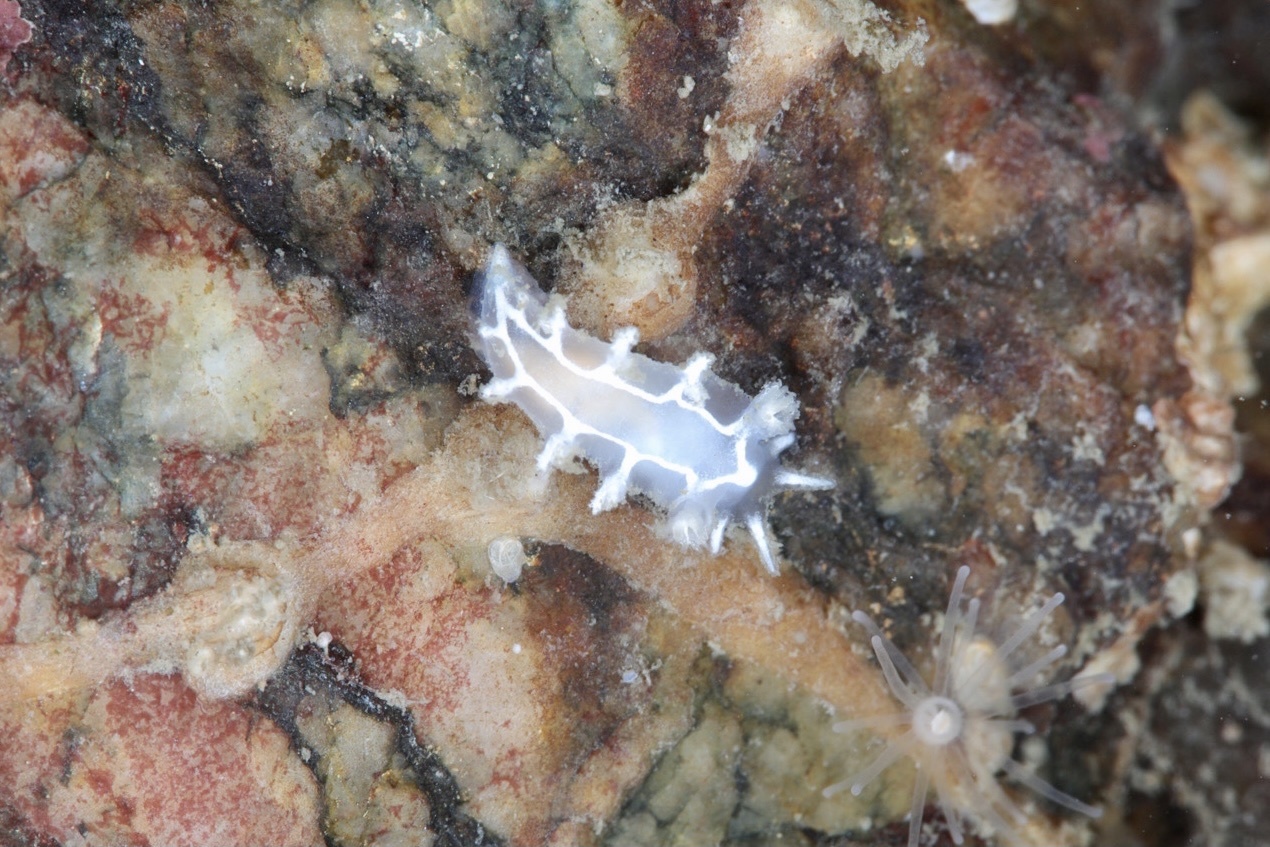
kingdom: Animalia
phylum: Mollusca
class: Gastropoda
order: Nudibranchia
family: Tritoniidae
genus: Duvaucelia
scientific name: Duvaucelia lineata
